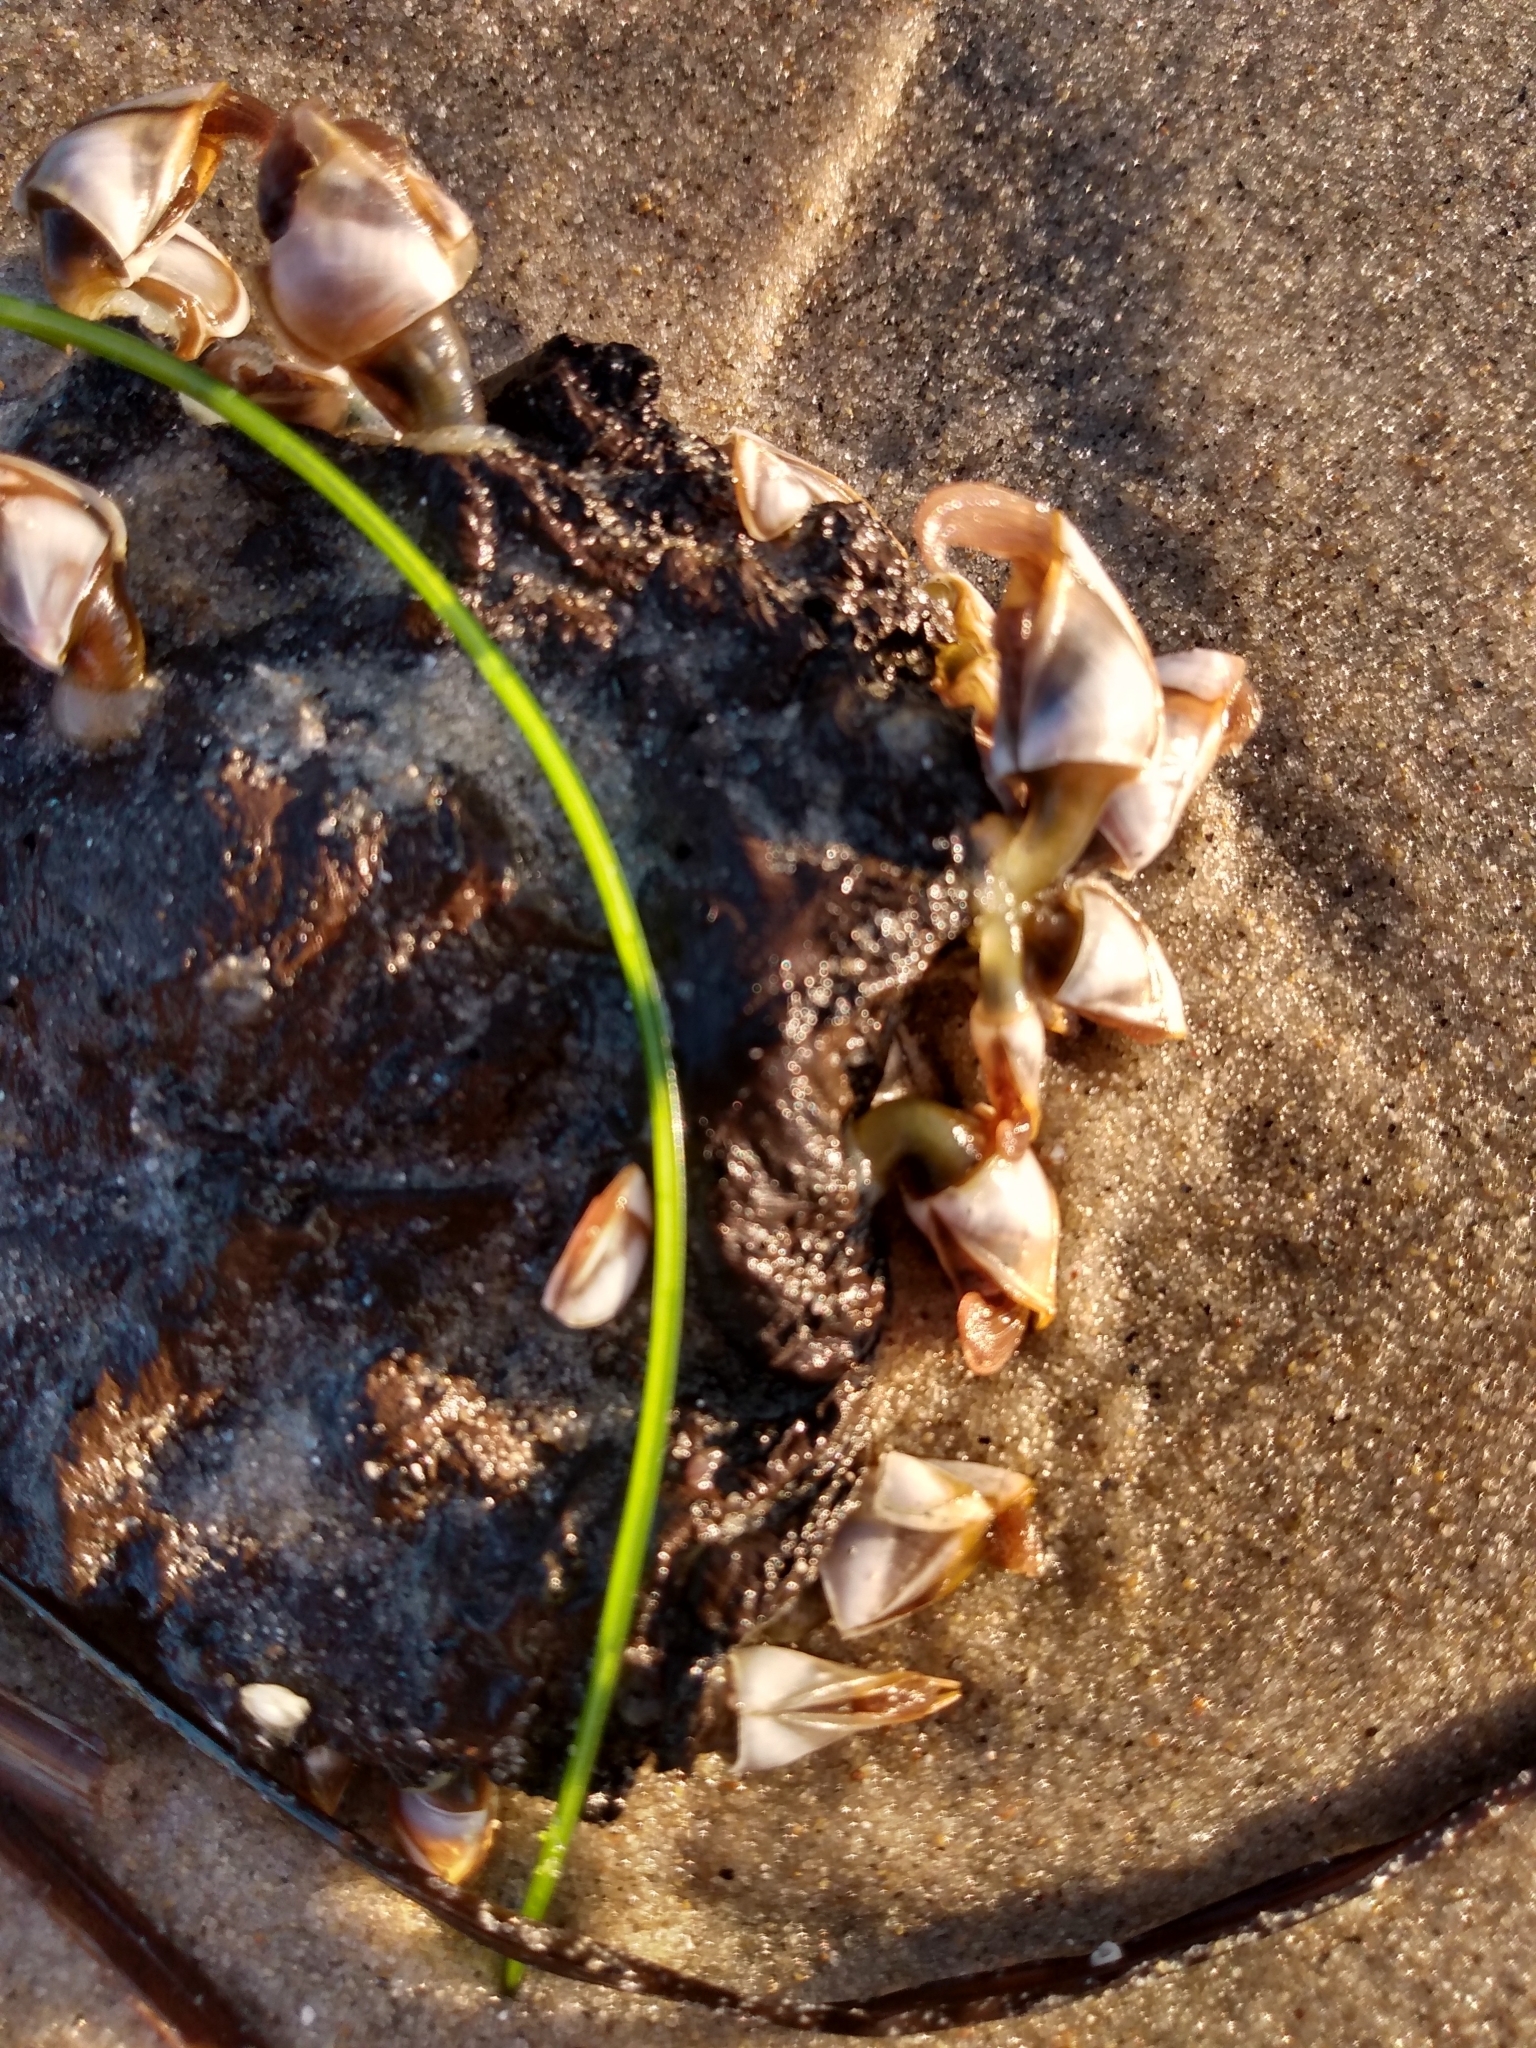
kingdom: Animalia
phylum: Arthropoda
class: Maxillopoda
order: Pedunculata
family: Lepadidae
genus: Lepas
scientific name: Lepas pacifica
